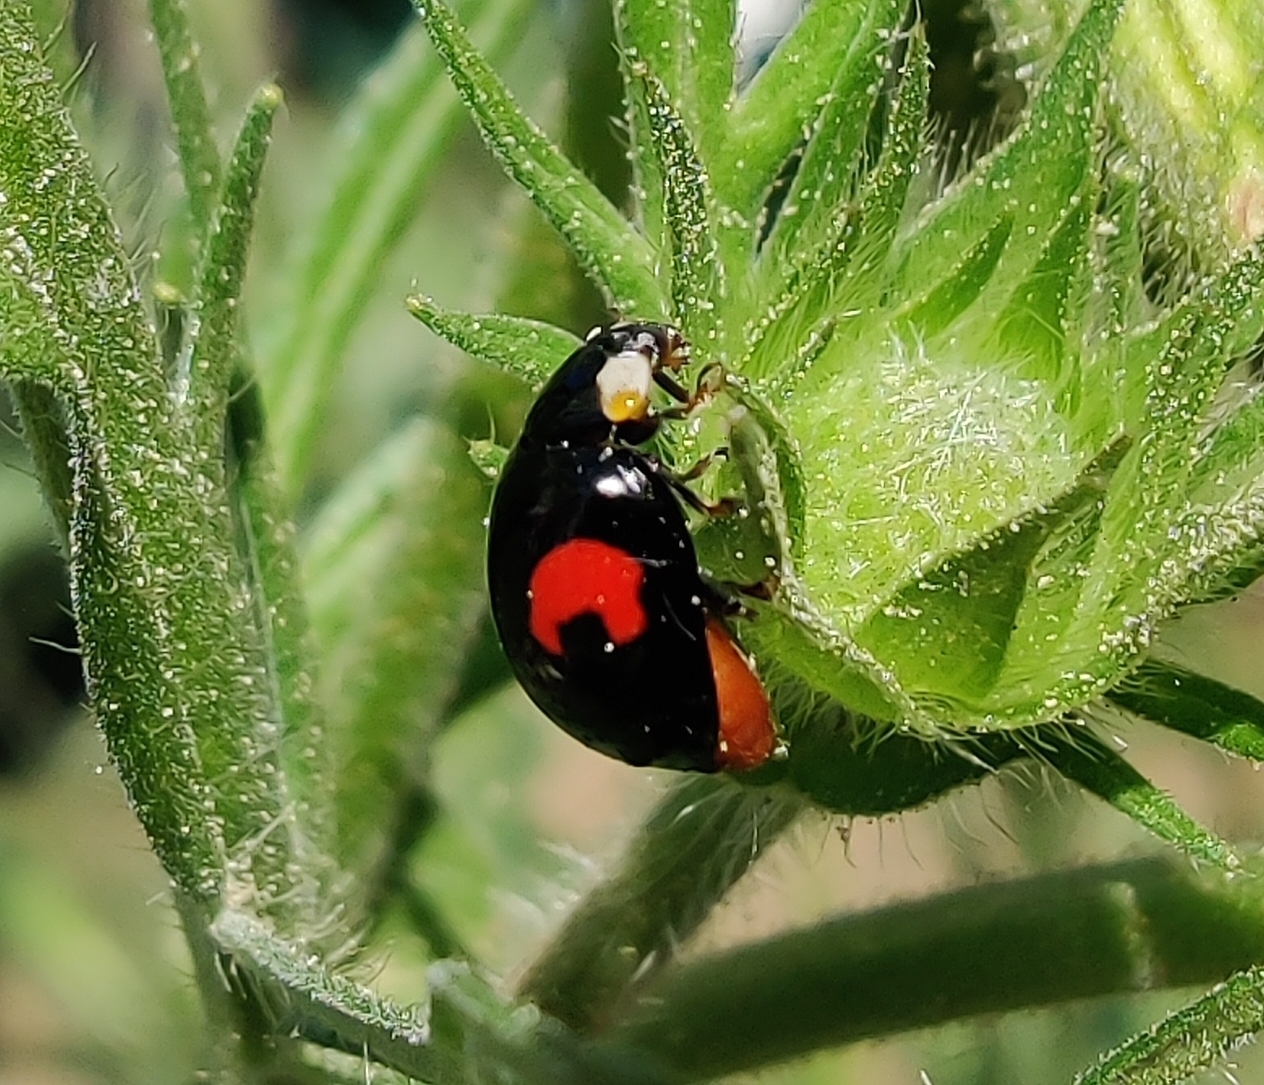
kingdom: Animalia
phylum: Arthropoda
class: Insecta
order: Coleoptera
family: Coccinellidae
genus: Harmonia
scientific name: Harmonia axyridis
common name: Harlequin ladybird
